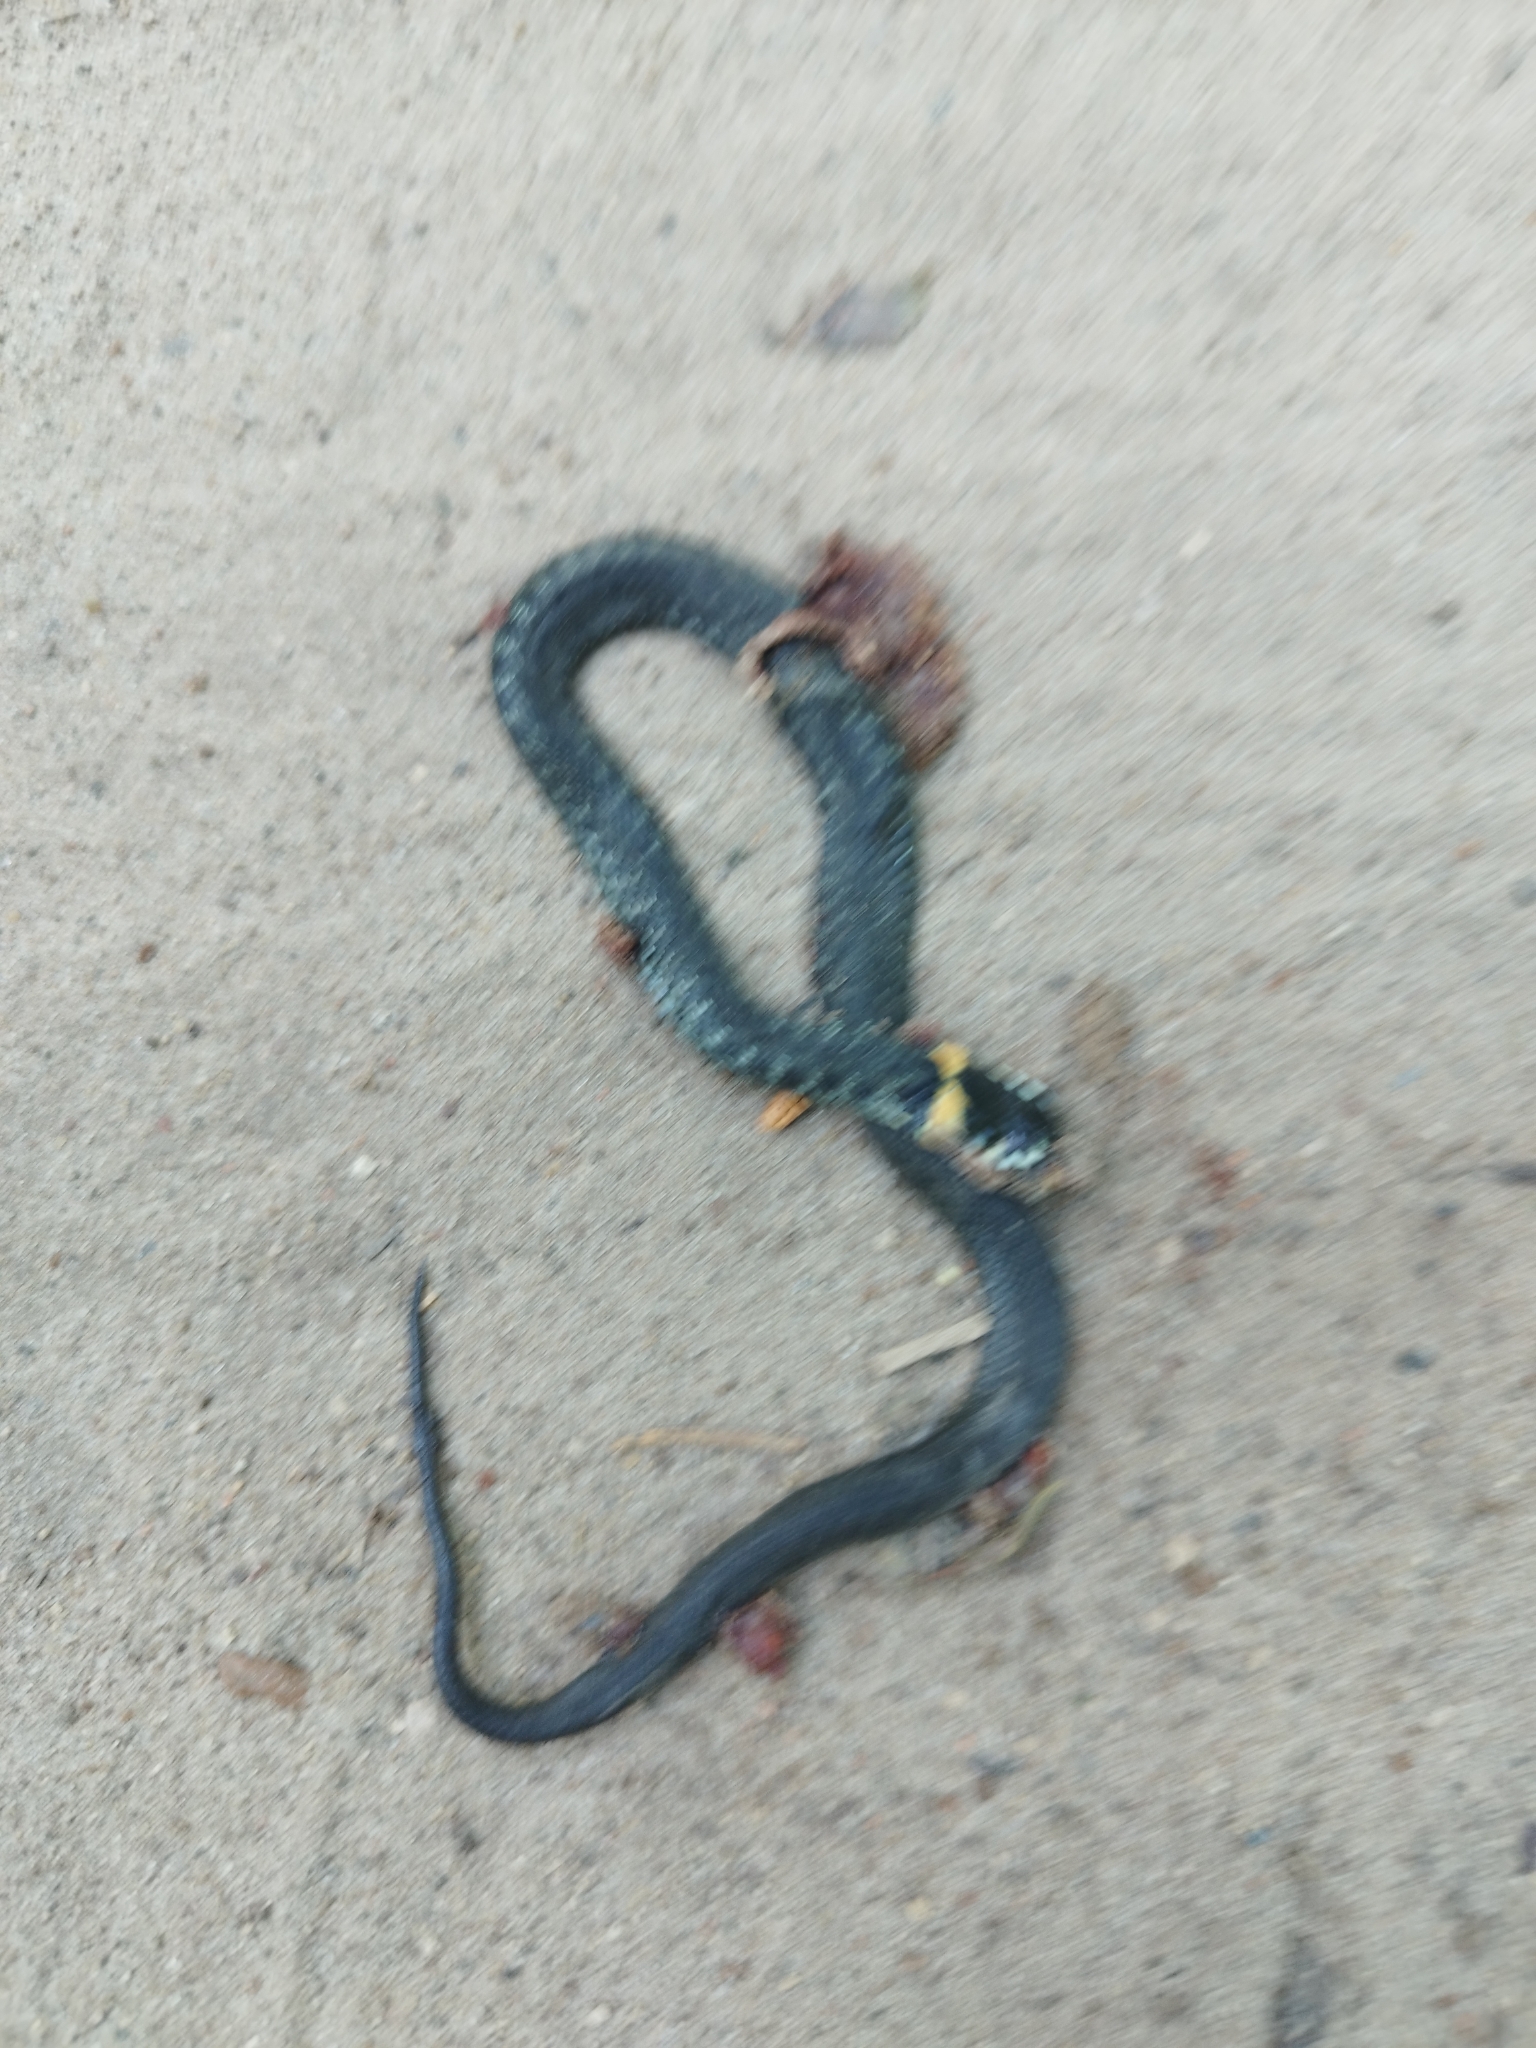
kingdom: Animalia
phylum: Chordata
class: Squamata
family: Colubridae
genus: Natrix
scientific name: Natrix natrix
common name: Grass snake
